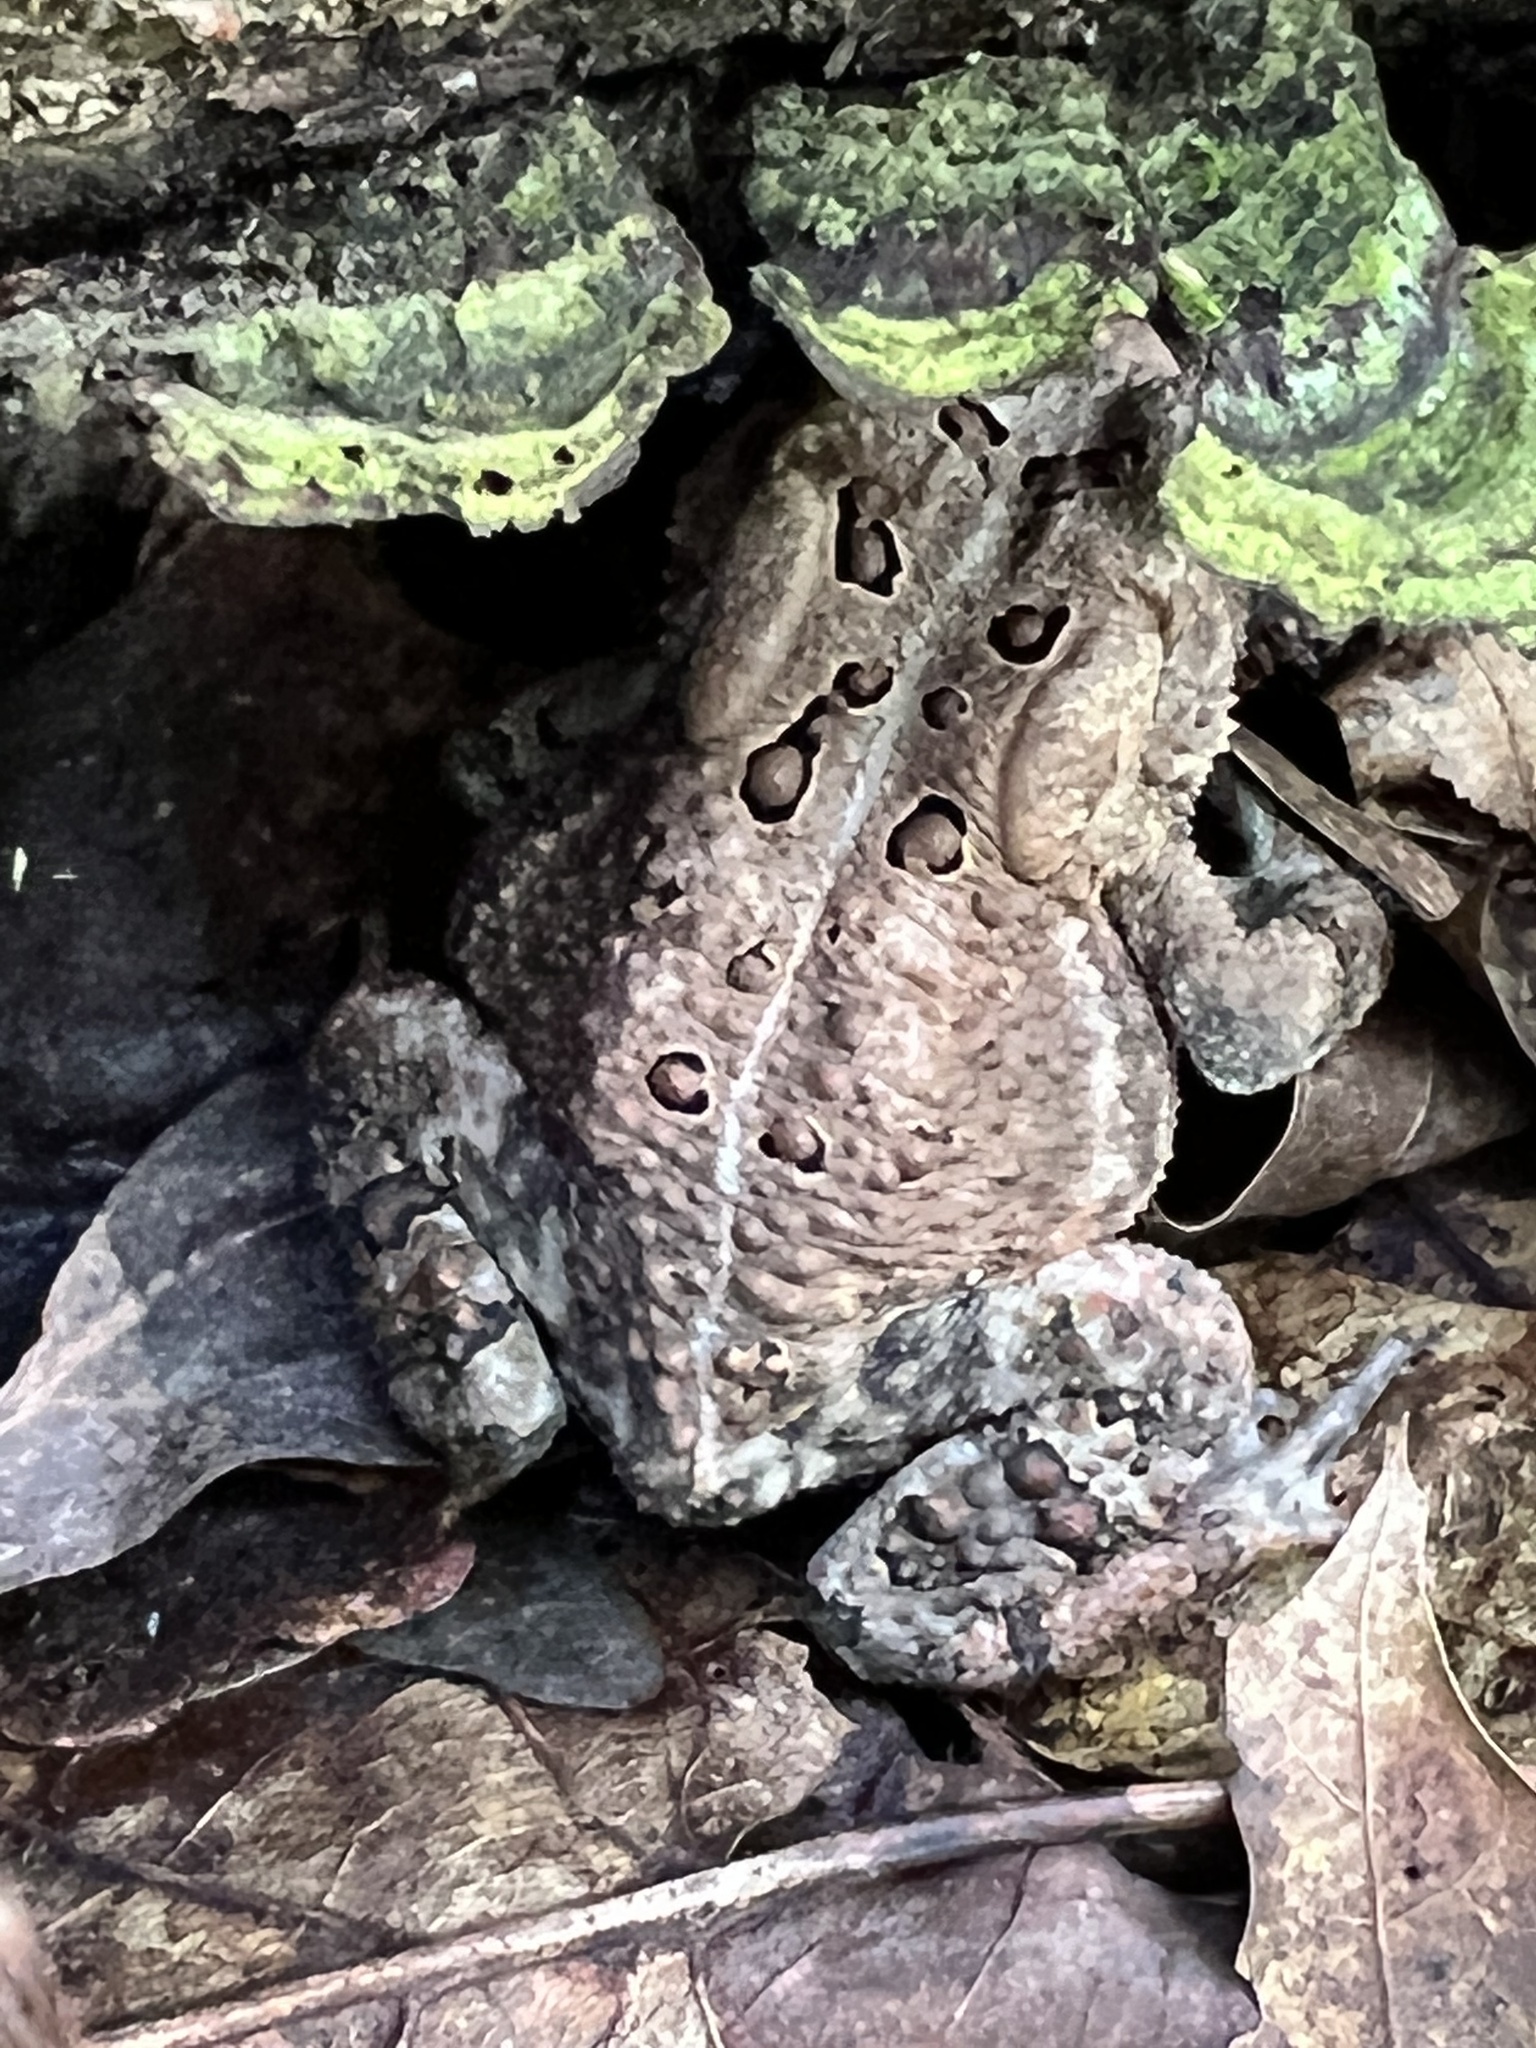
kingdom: Animalia
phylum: Chordata
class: Amphibia
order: Anura
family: Bufonidae
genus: Anaxyrus
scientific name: Anaxyrus americanus
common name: American toad
